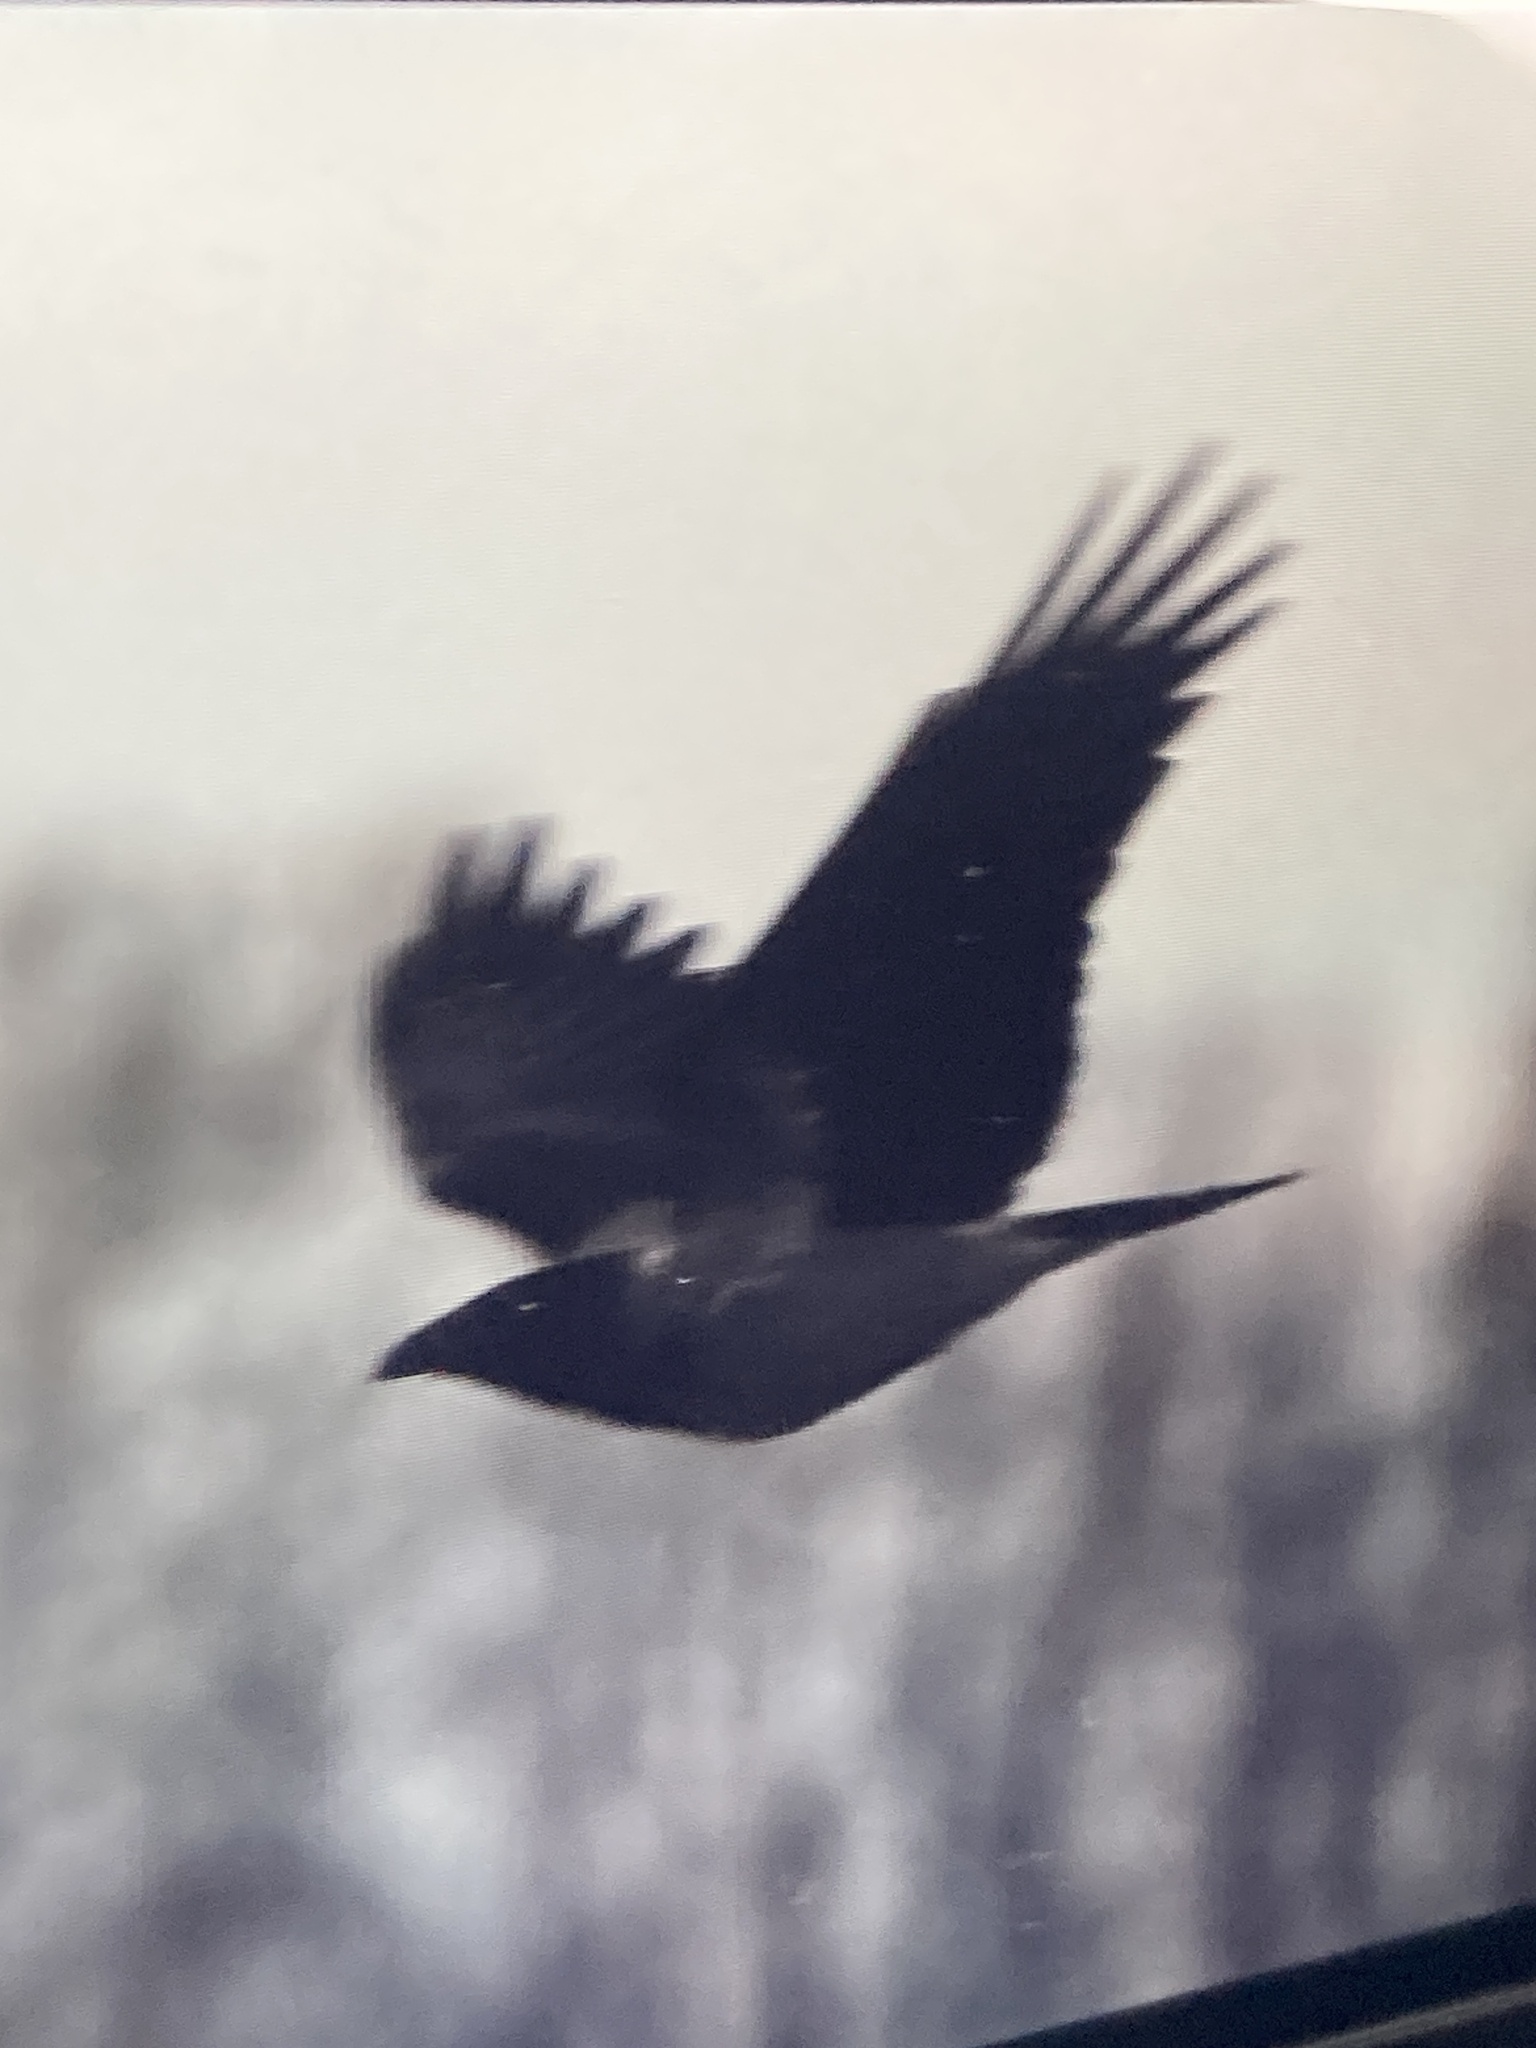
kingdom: Animalia
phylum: Chordata
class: Aves
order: Passeriformes
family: Corvidae
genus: Corvus
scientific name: Corvus cornix
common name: Hooded crow
